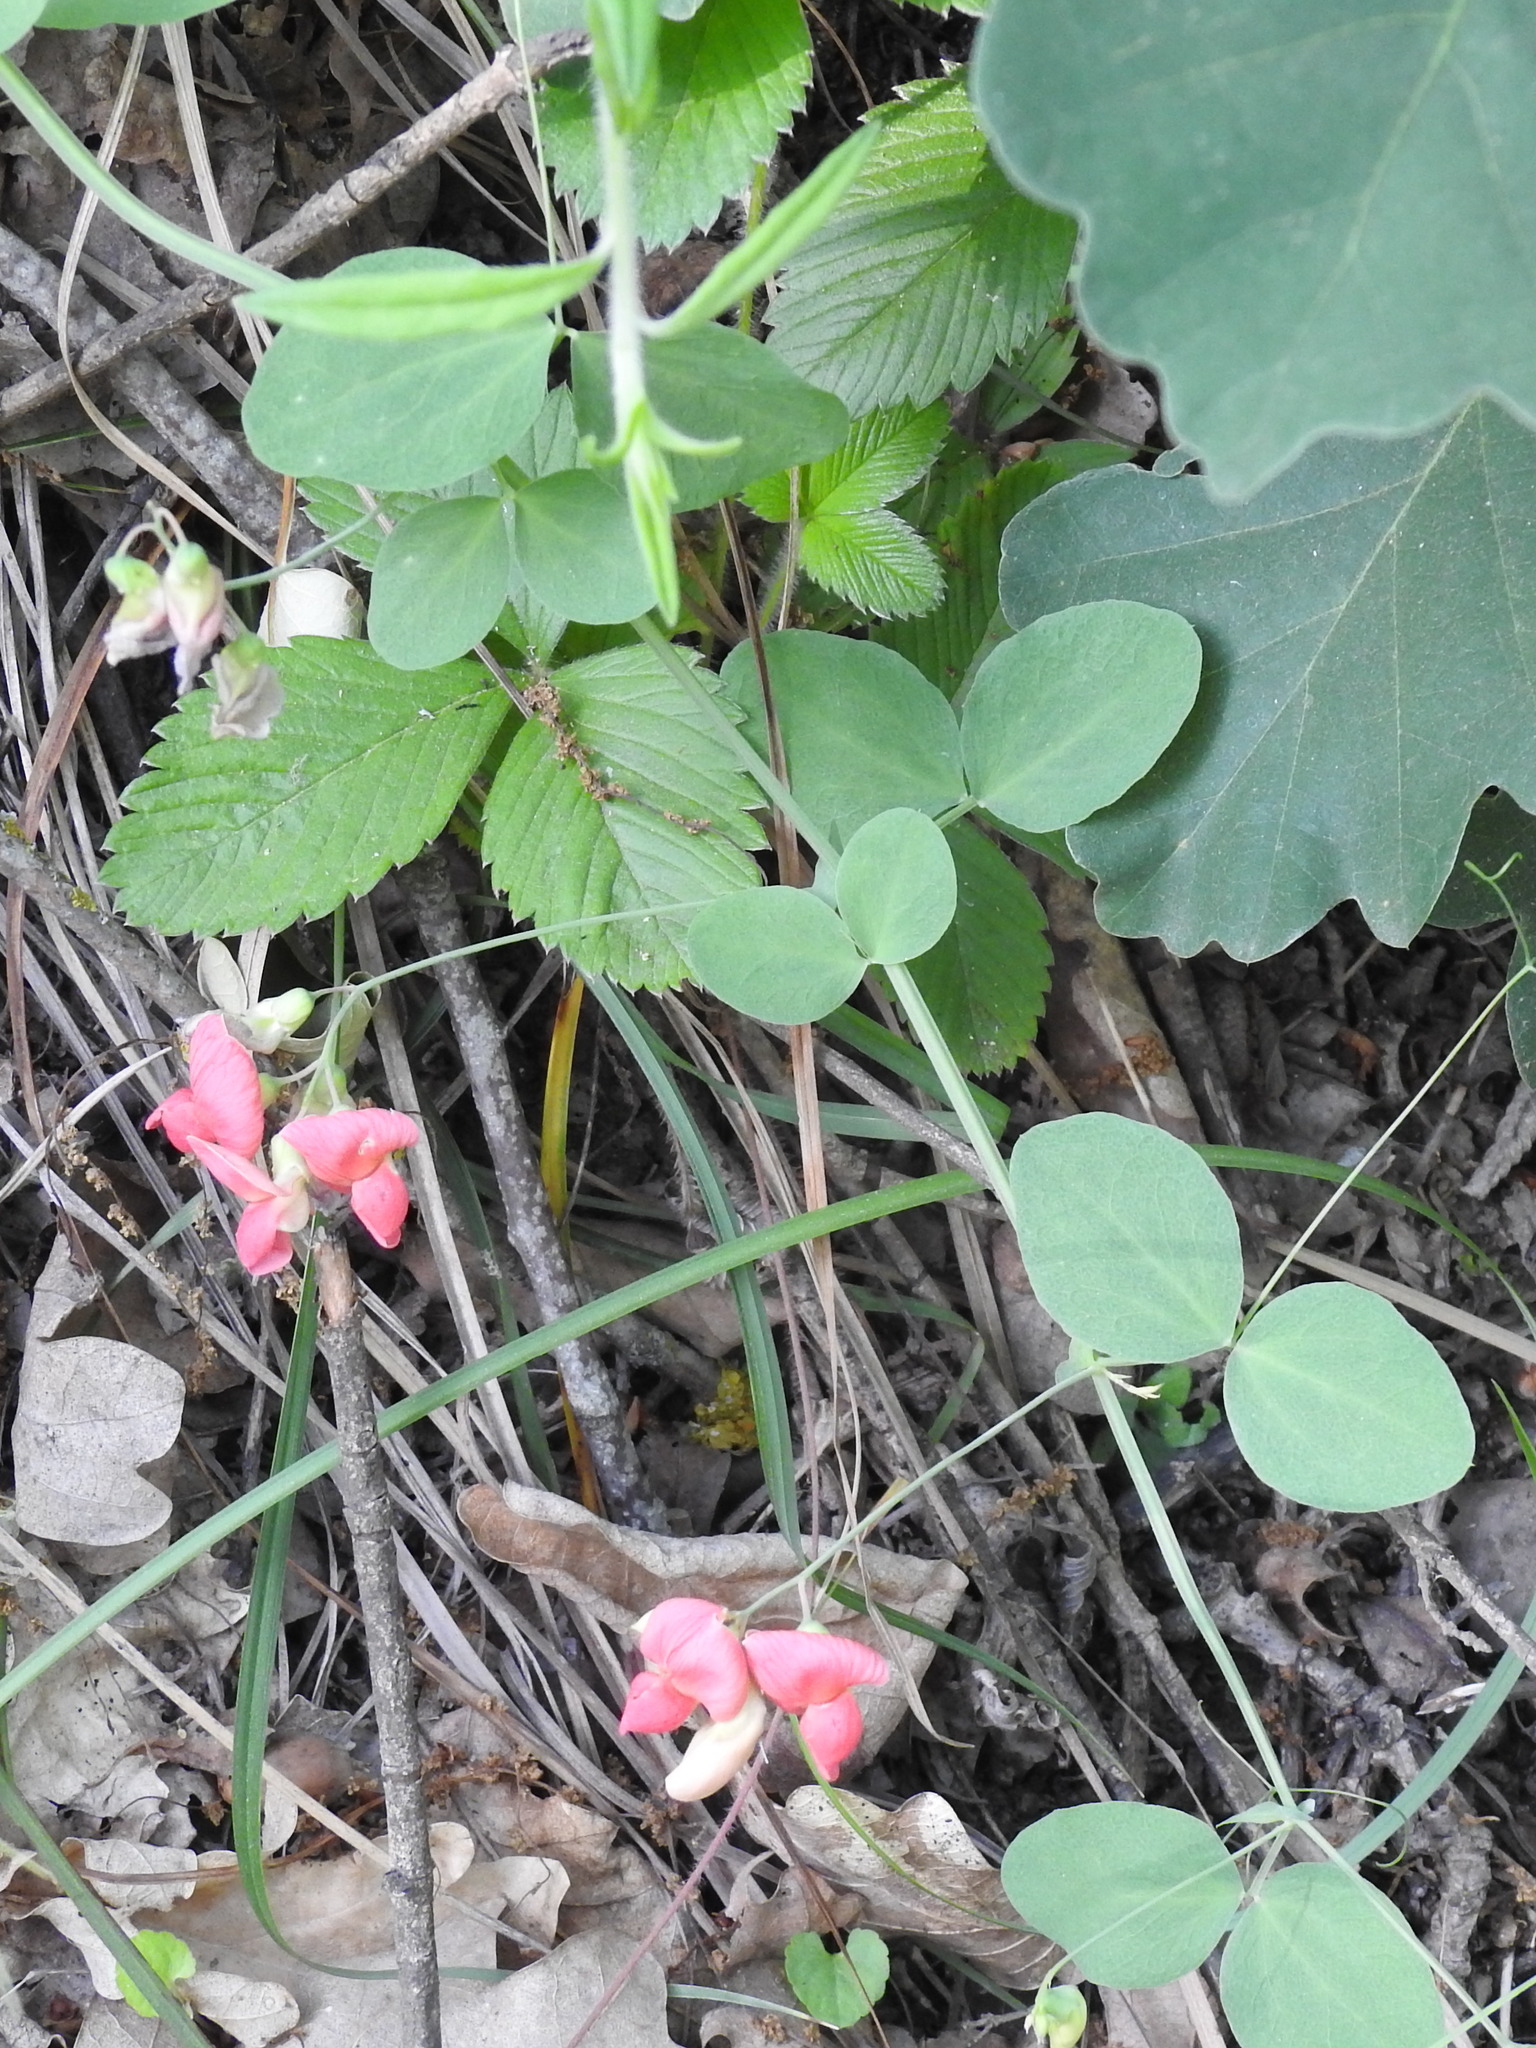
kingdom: Plantae
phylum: Tracheophyta
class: Magnoliopsida
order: Fabales
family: Fabaceae
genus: Lathyrus
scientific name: Lathyrus miniatus
